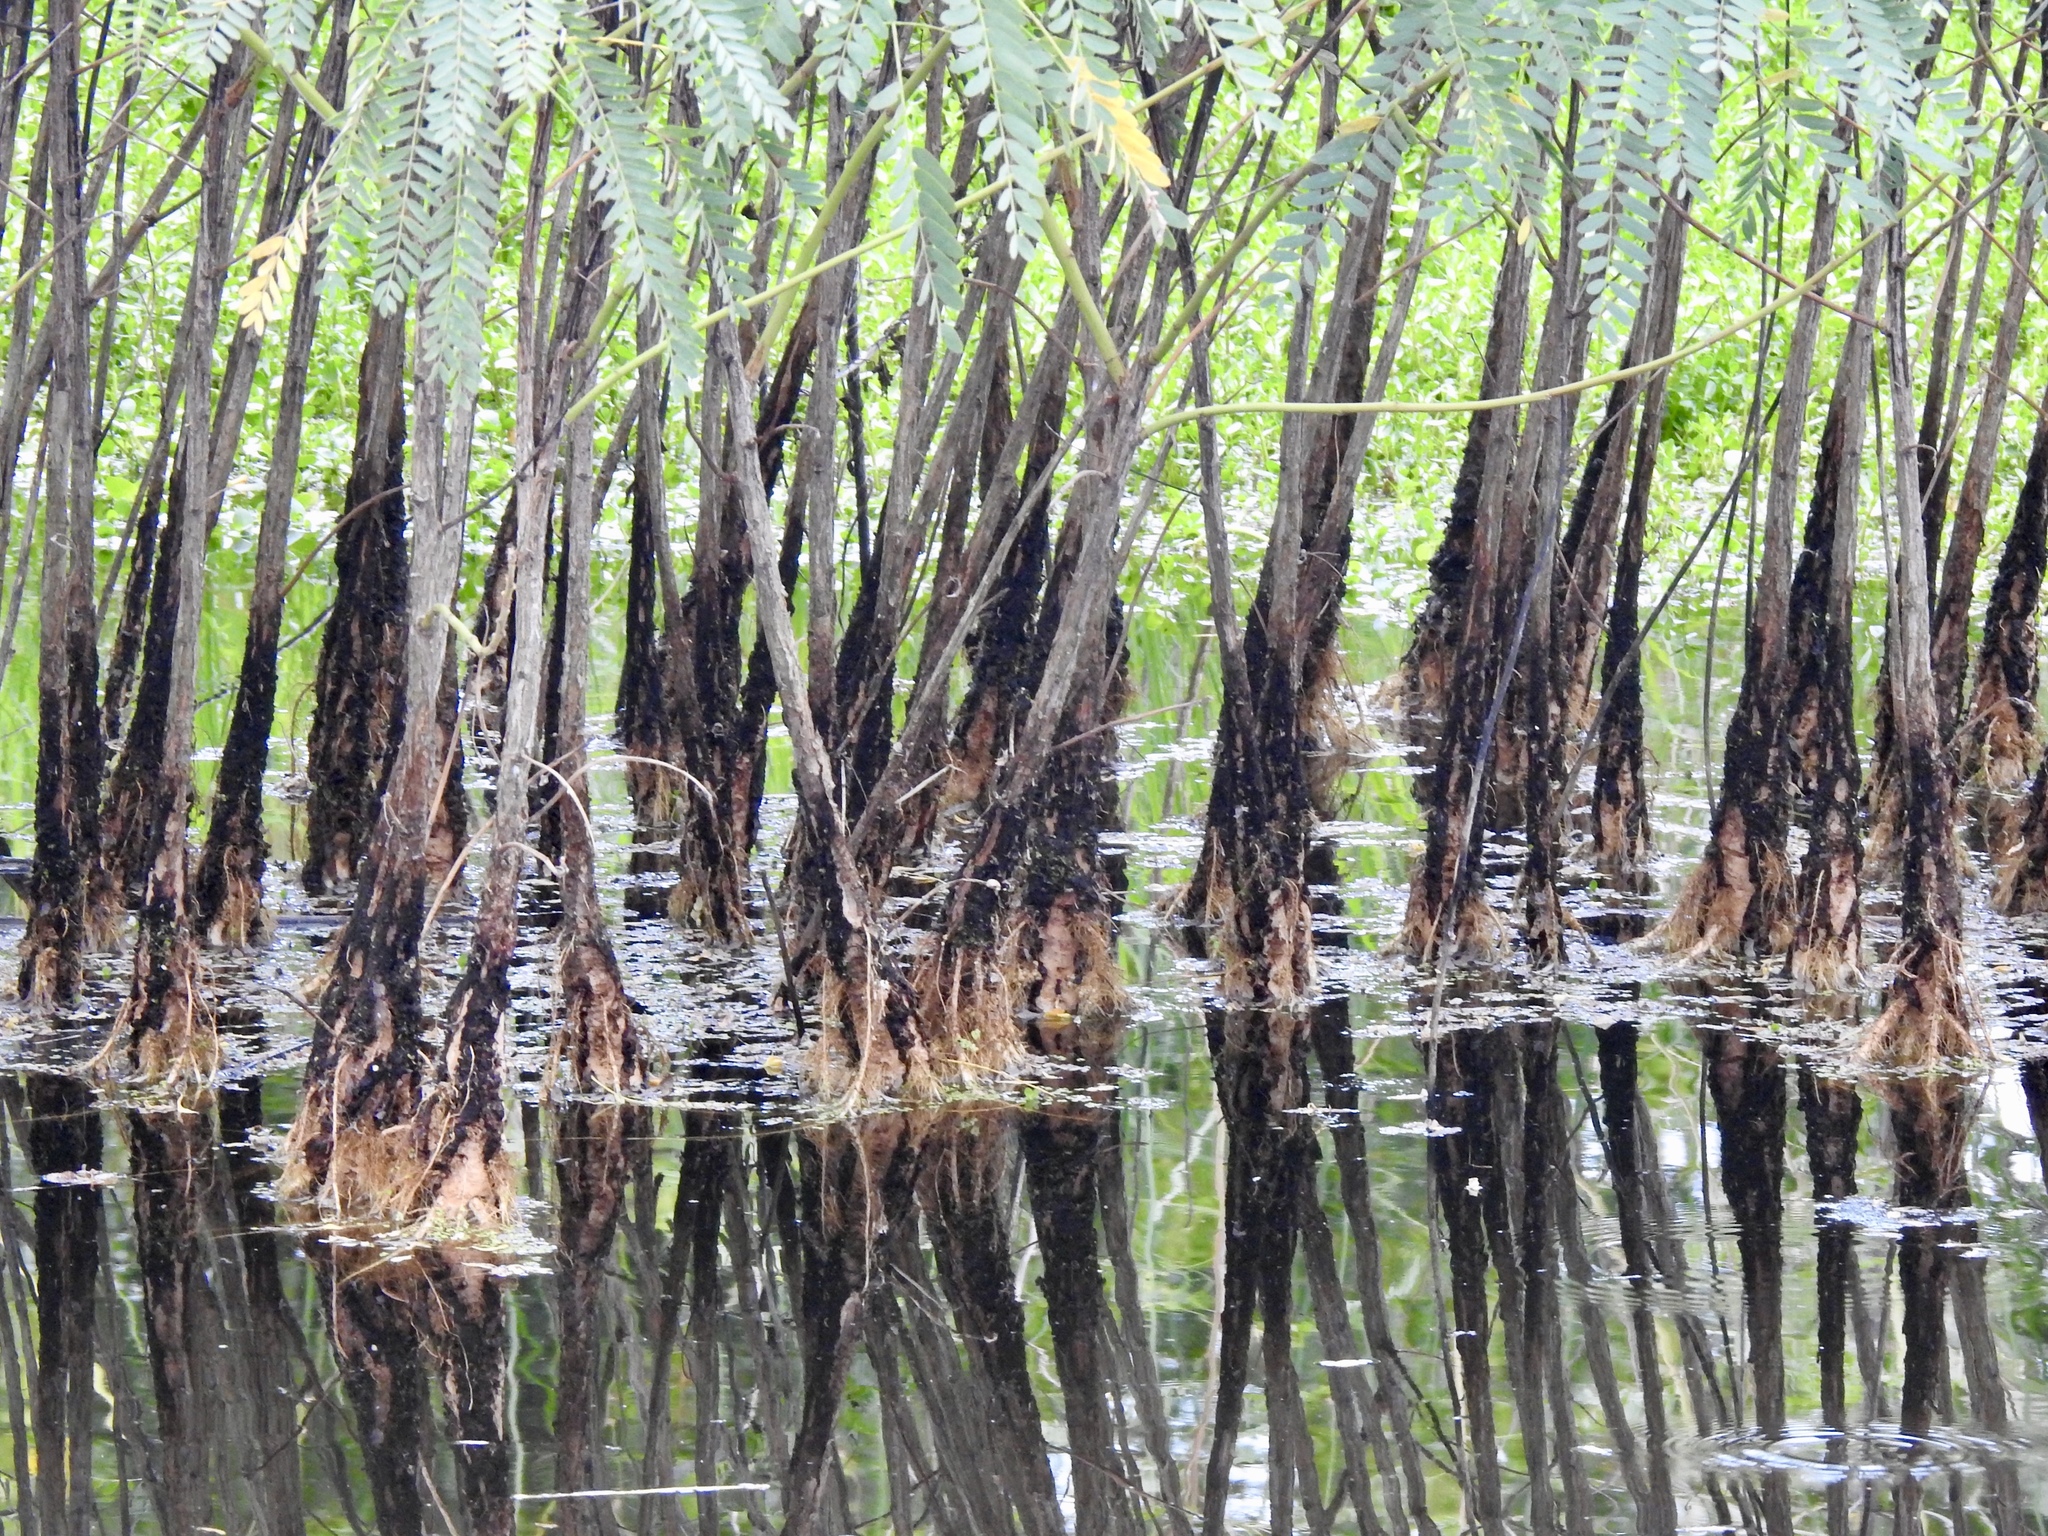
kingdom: Plantae
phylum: Tracheophyta
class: Magnoliopsida
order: Fabales
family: Fabaceae
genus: Sesbania
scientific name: Sesbania drummondii
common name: Poison-bean
